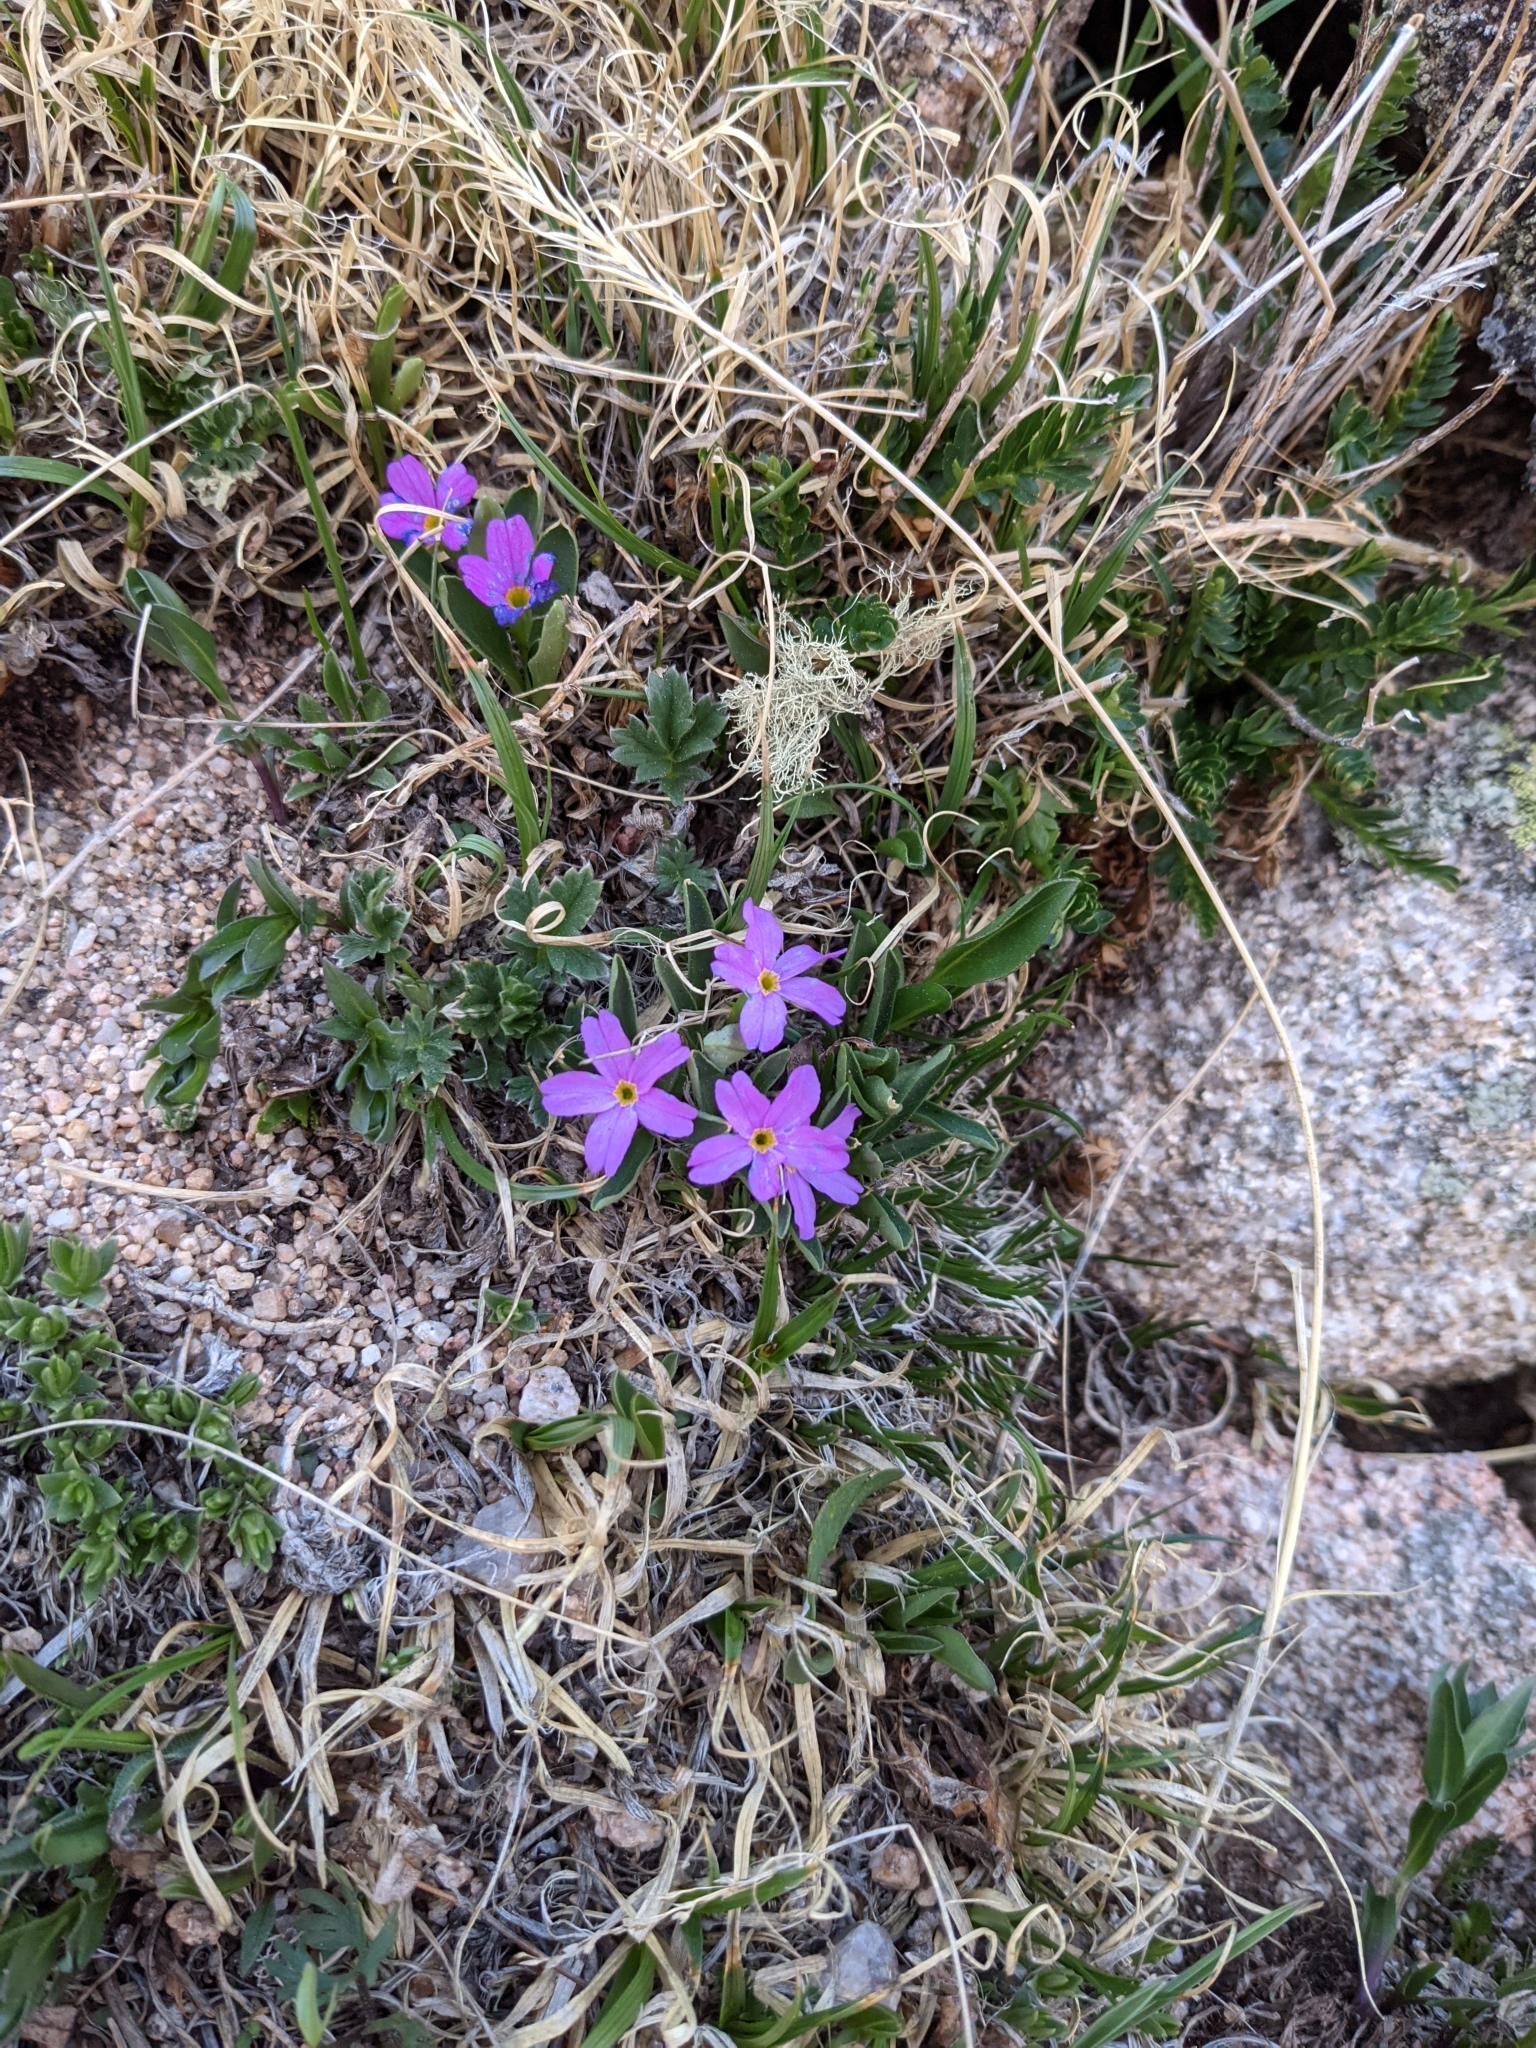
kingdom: Plantae
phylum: Tracheophyta
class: Magnoliopsida
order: Ericales
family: Primulaceae
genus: Primula
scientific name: Primula angustifolia
